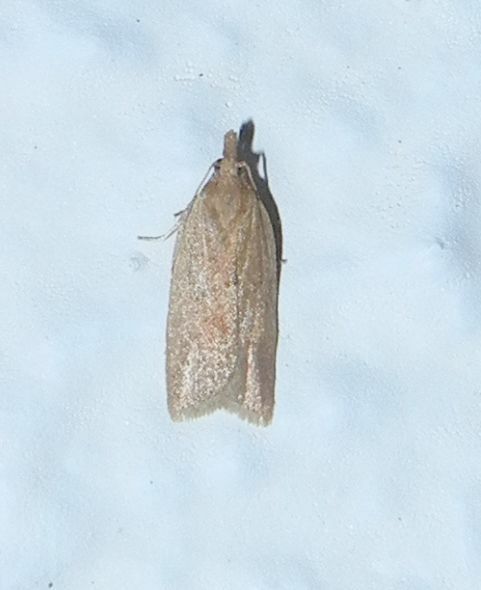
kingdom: Animalia
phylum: Arthropoda
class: Insecta
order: Lepidoptera
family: Tortricidae
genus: Clepsis
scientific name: Clepsis coriacana
